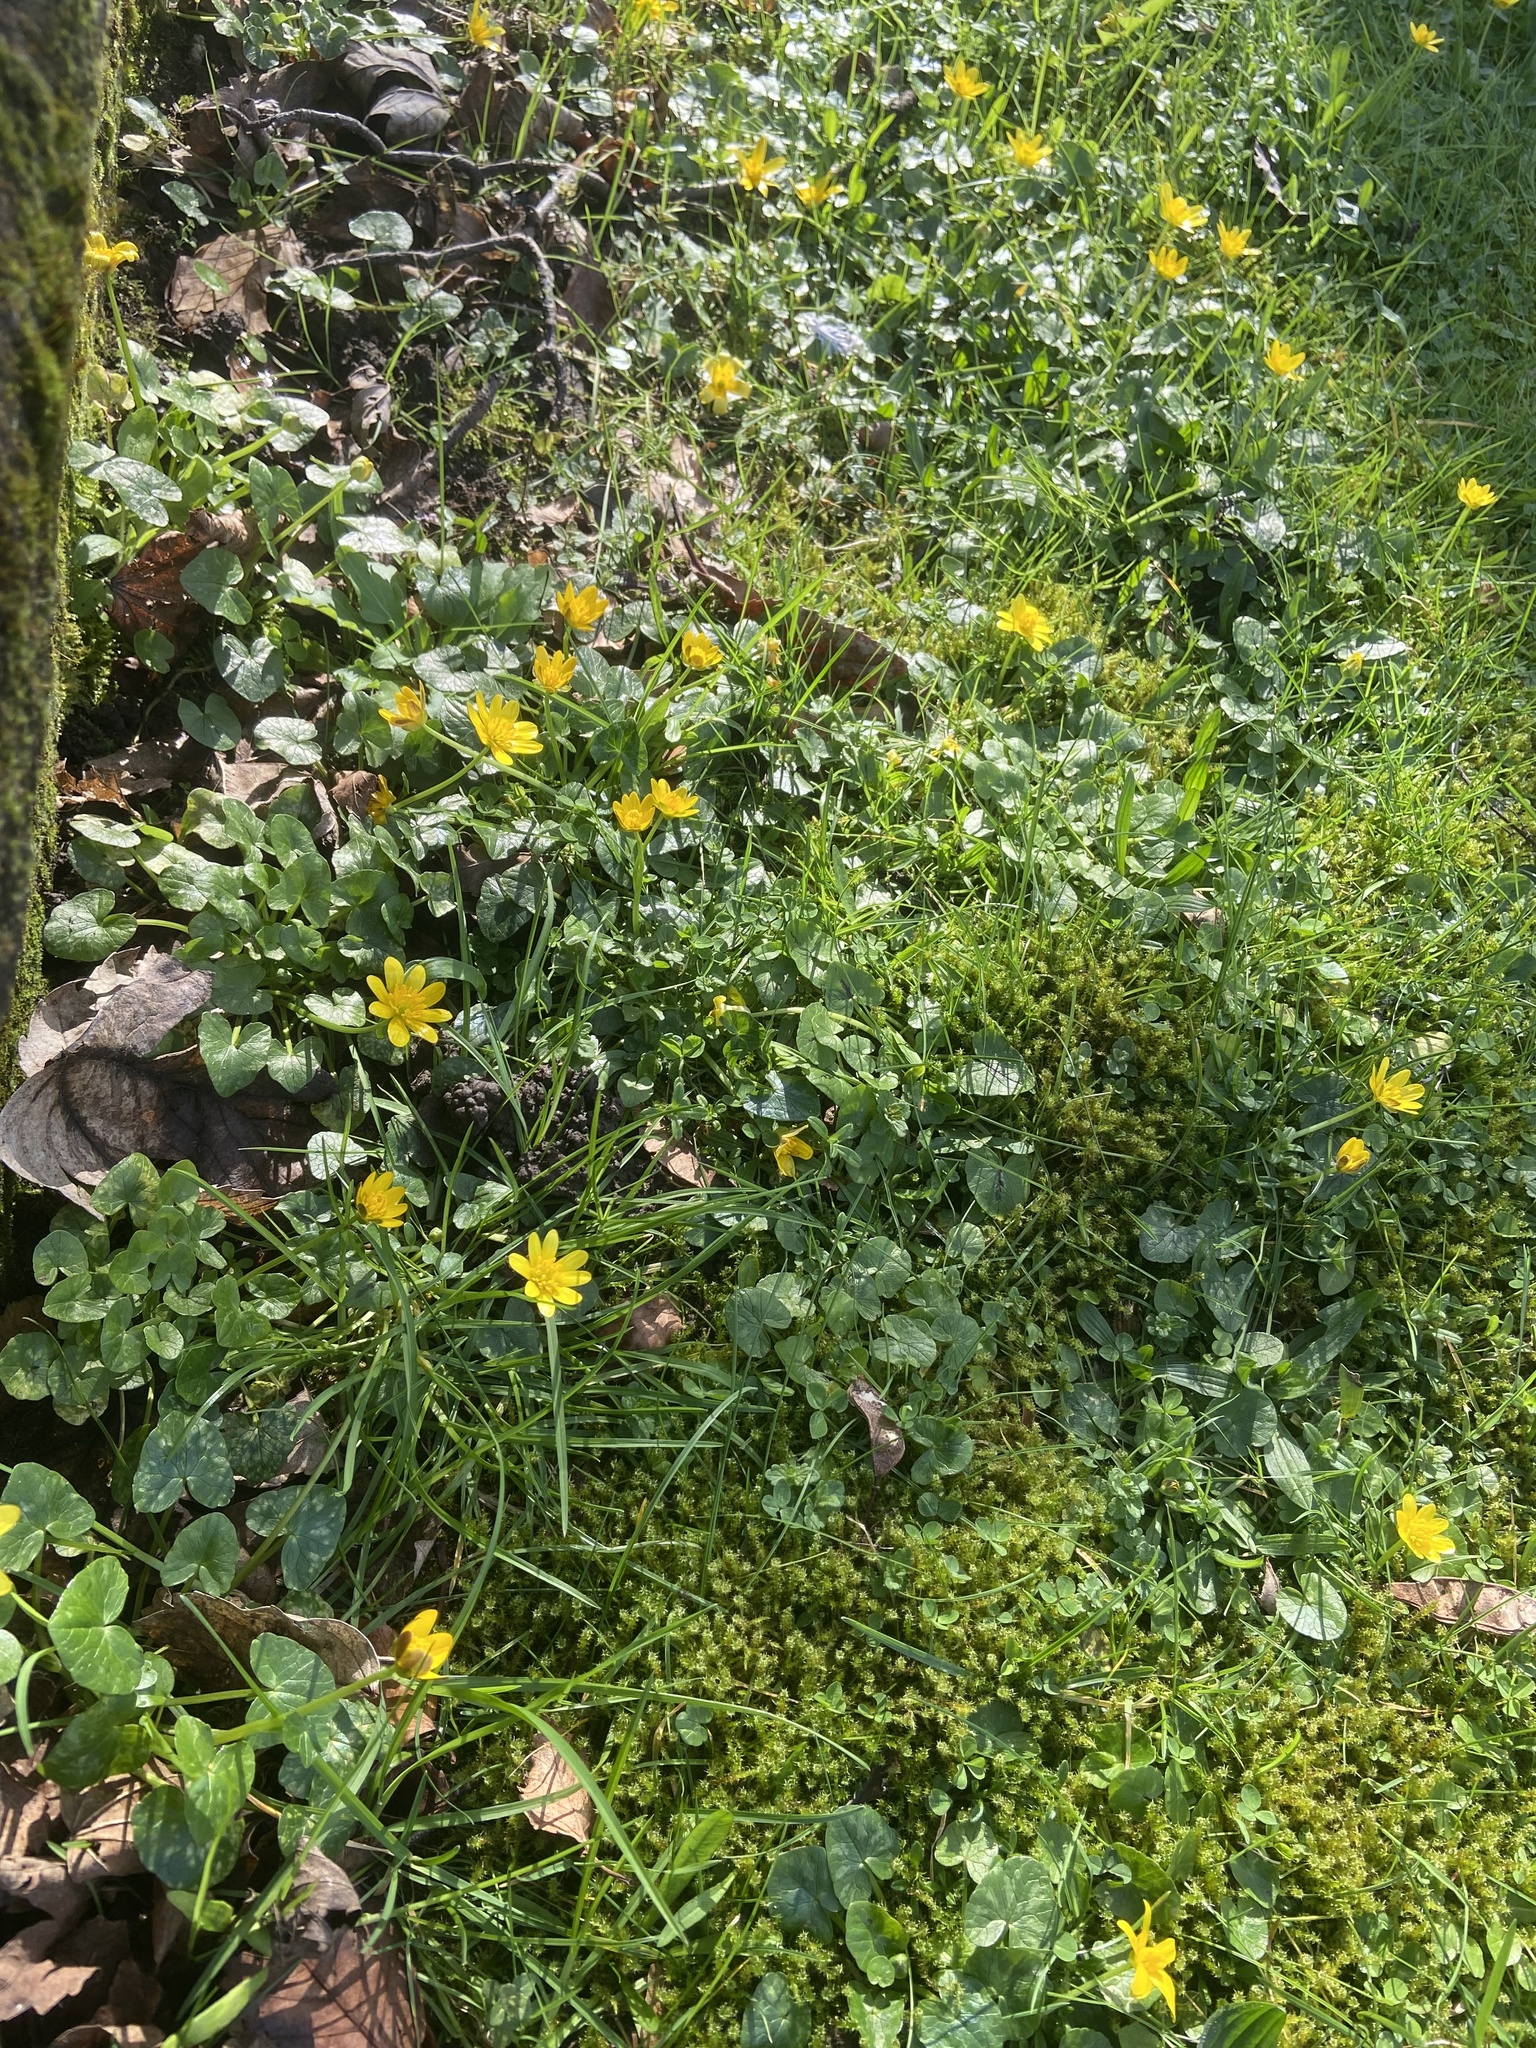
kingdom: Plantae
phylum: Tracheophyta
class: Magnoliopsida
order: Ranunculales
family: Ranunculaceae
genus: Ficaria
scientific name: Ficaria verna
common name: Lesser celandine
